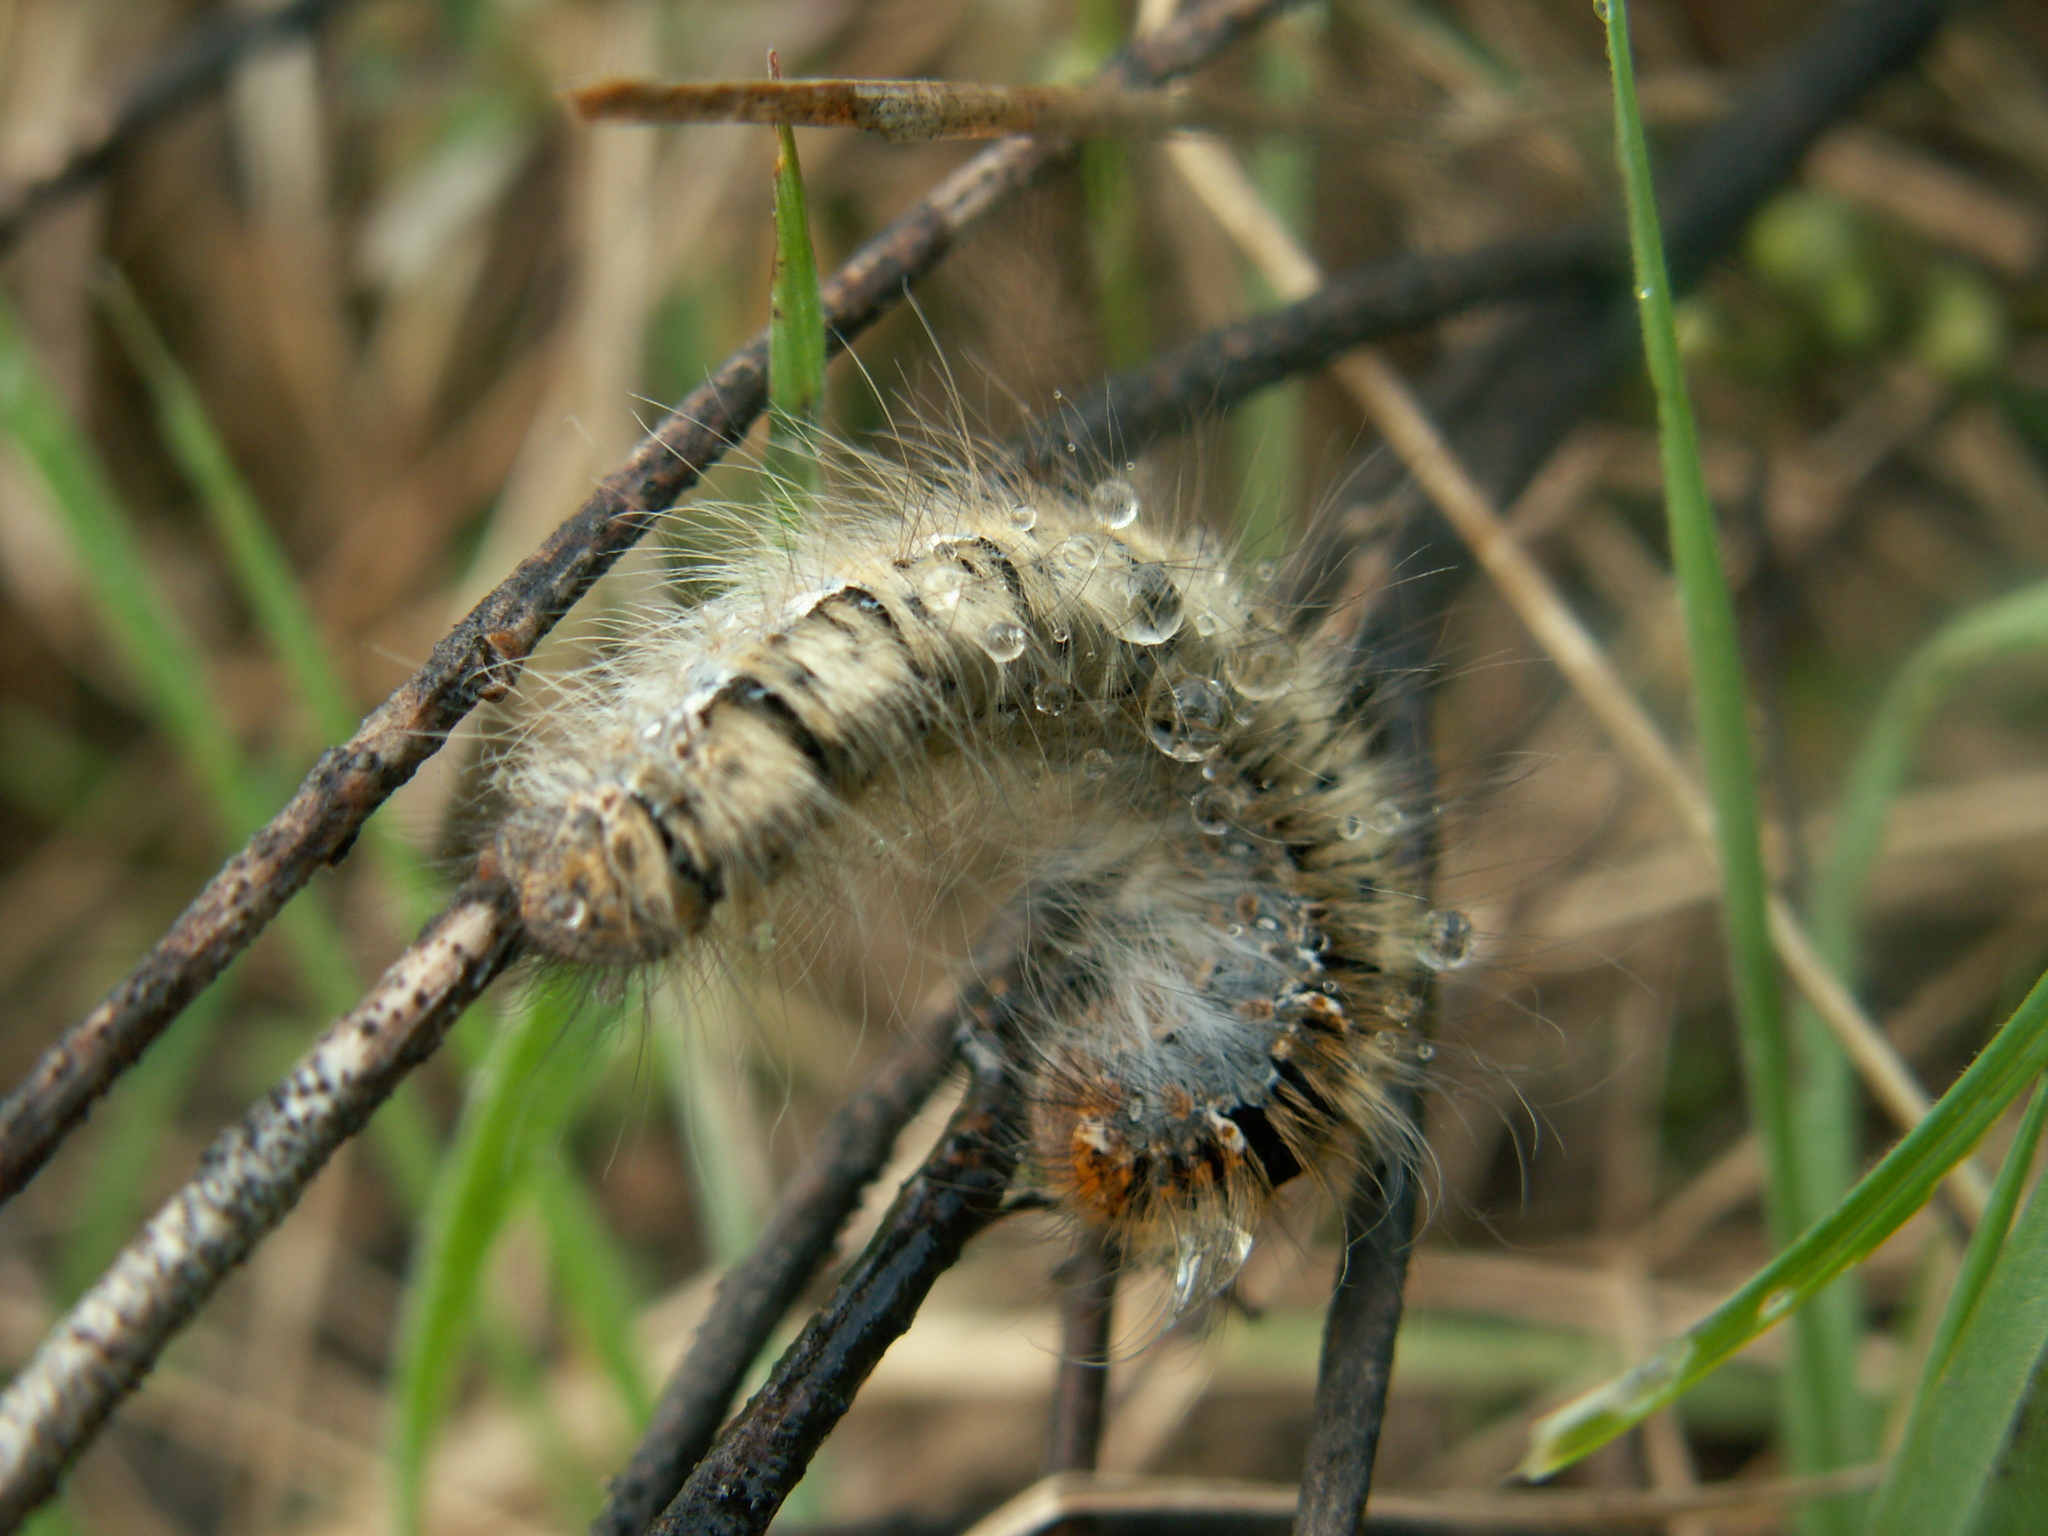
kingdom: Animalia
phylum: Arthropoda
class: Insecta
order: Lepidoptera
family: Lasiocampidae
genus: Lasiocampa
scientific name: Lasiocampa quercus
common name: Oak eggar
